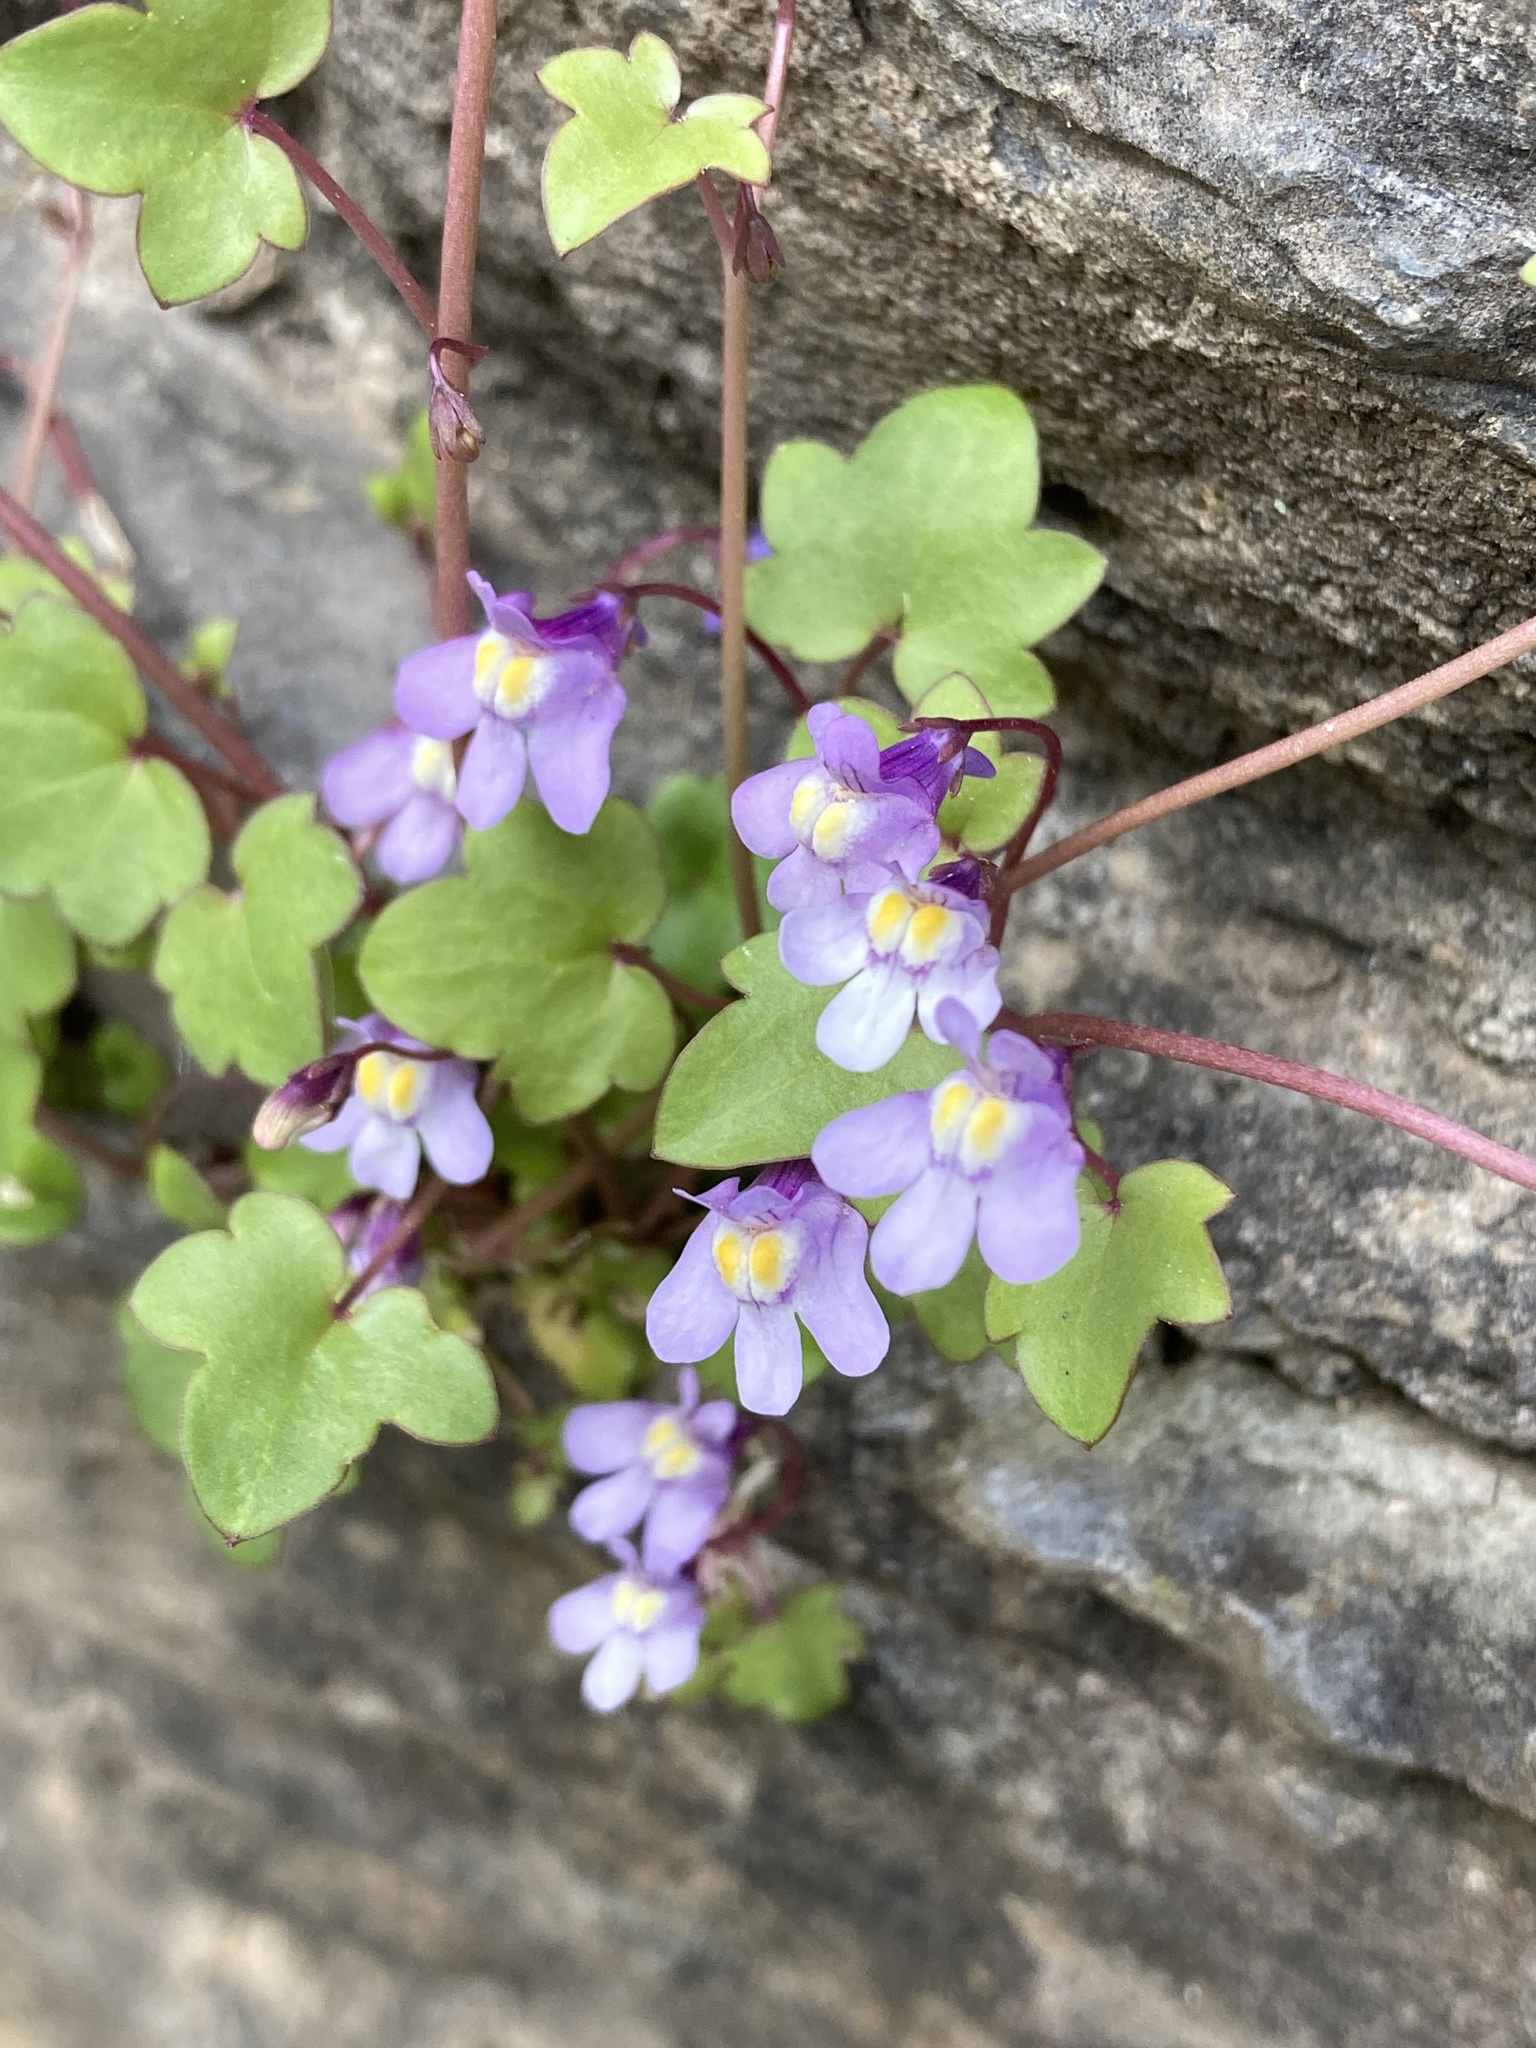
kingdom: Plantae
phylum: Tracheophyta
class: Magnoliopsida
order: Lamiales
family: Plantaginaceae
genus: Cymbalaria
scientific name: Cymbalaria muralis
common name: Ivy-leaved toadflax
